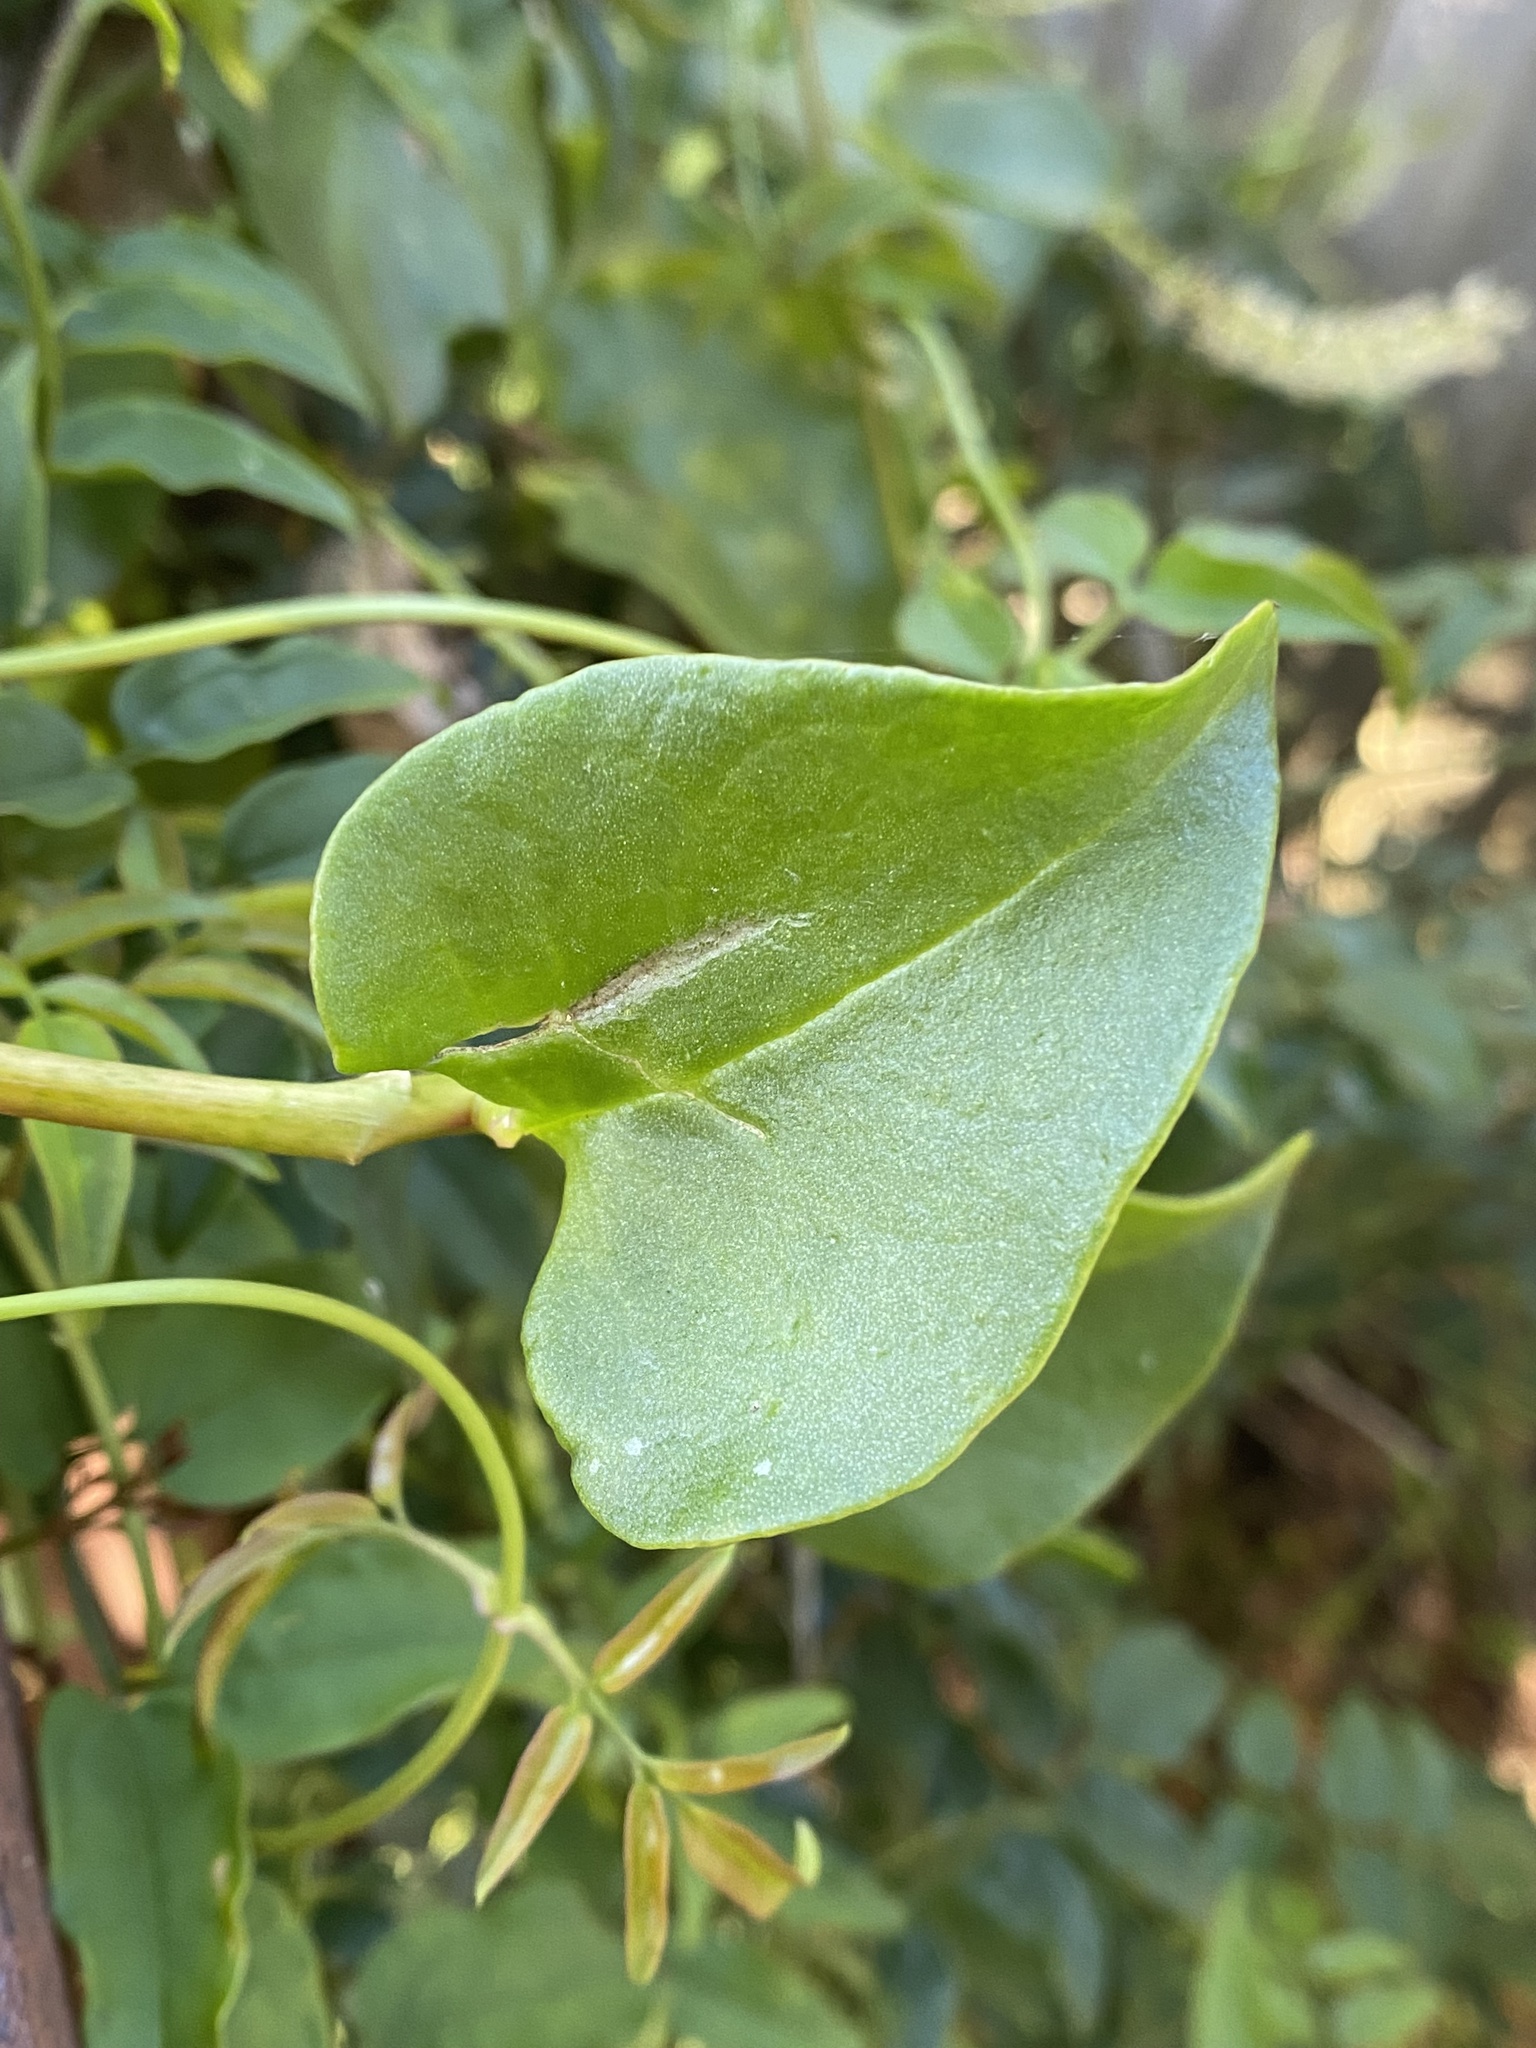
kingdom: Plantae
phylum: Tracheophyta
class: Magnoliopsida
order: Caryophyllales
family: Basellaceae
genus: Anredera
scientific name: Anredera cordifolia
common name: Heartleaf madeiravine
